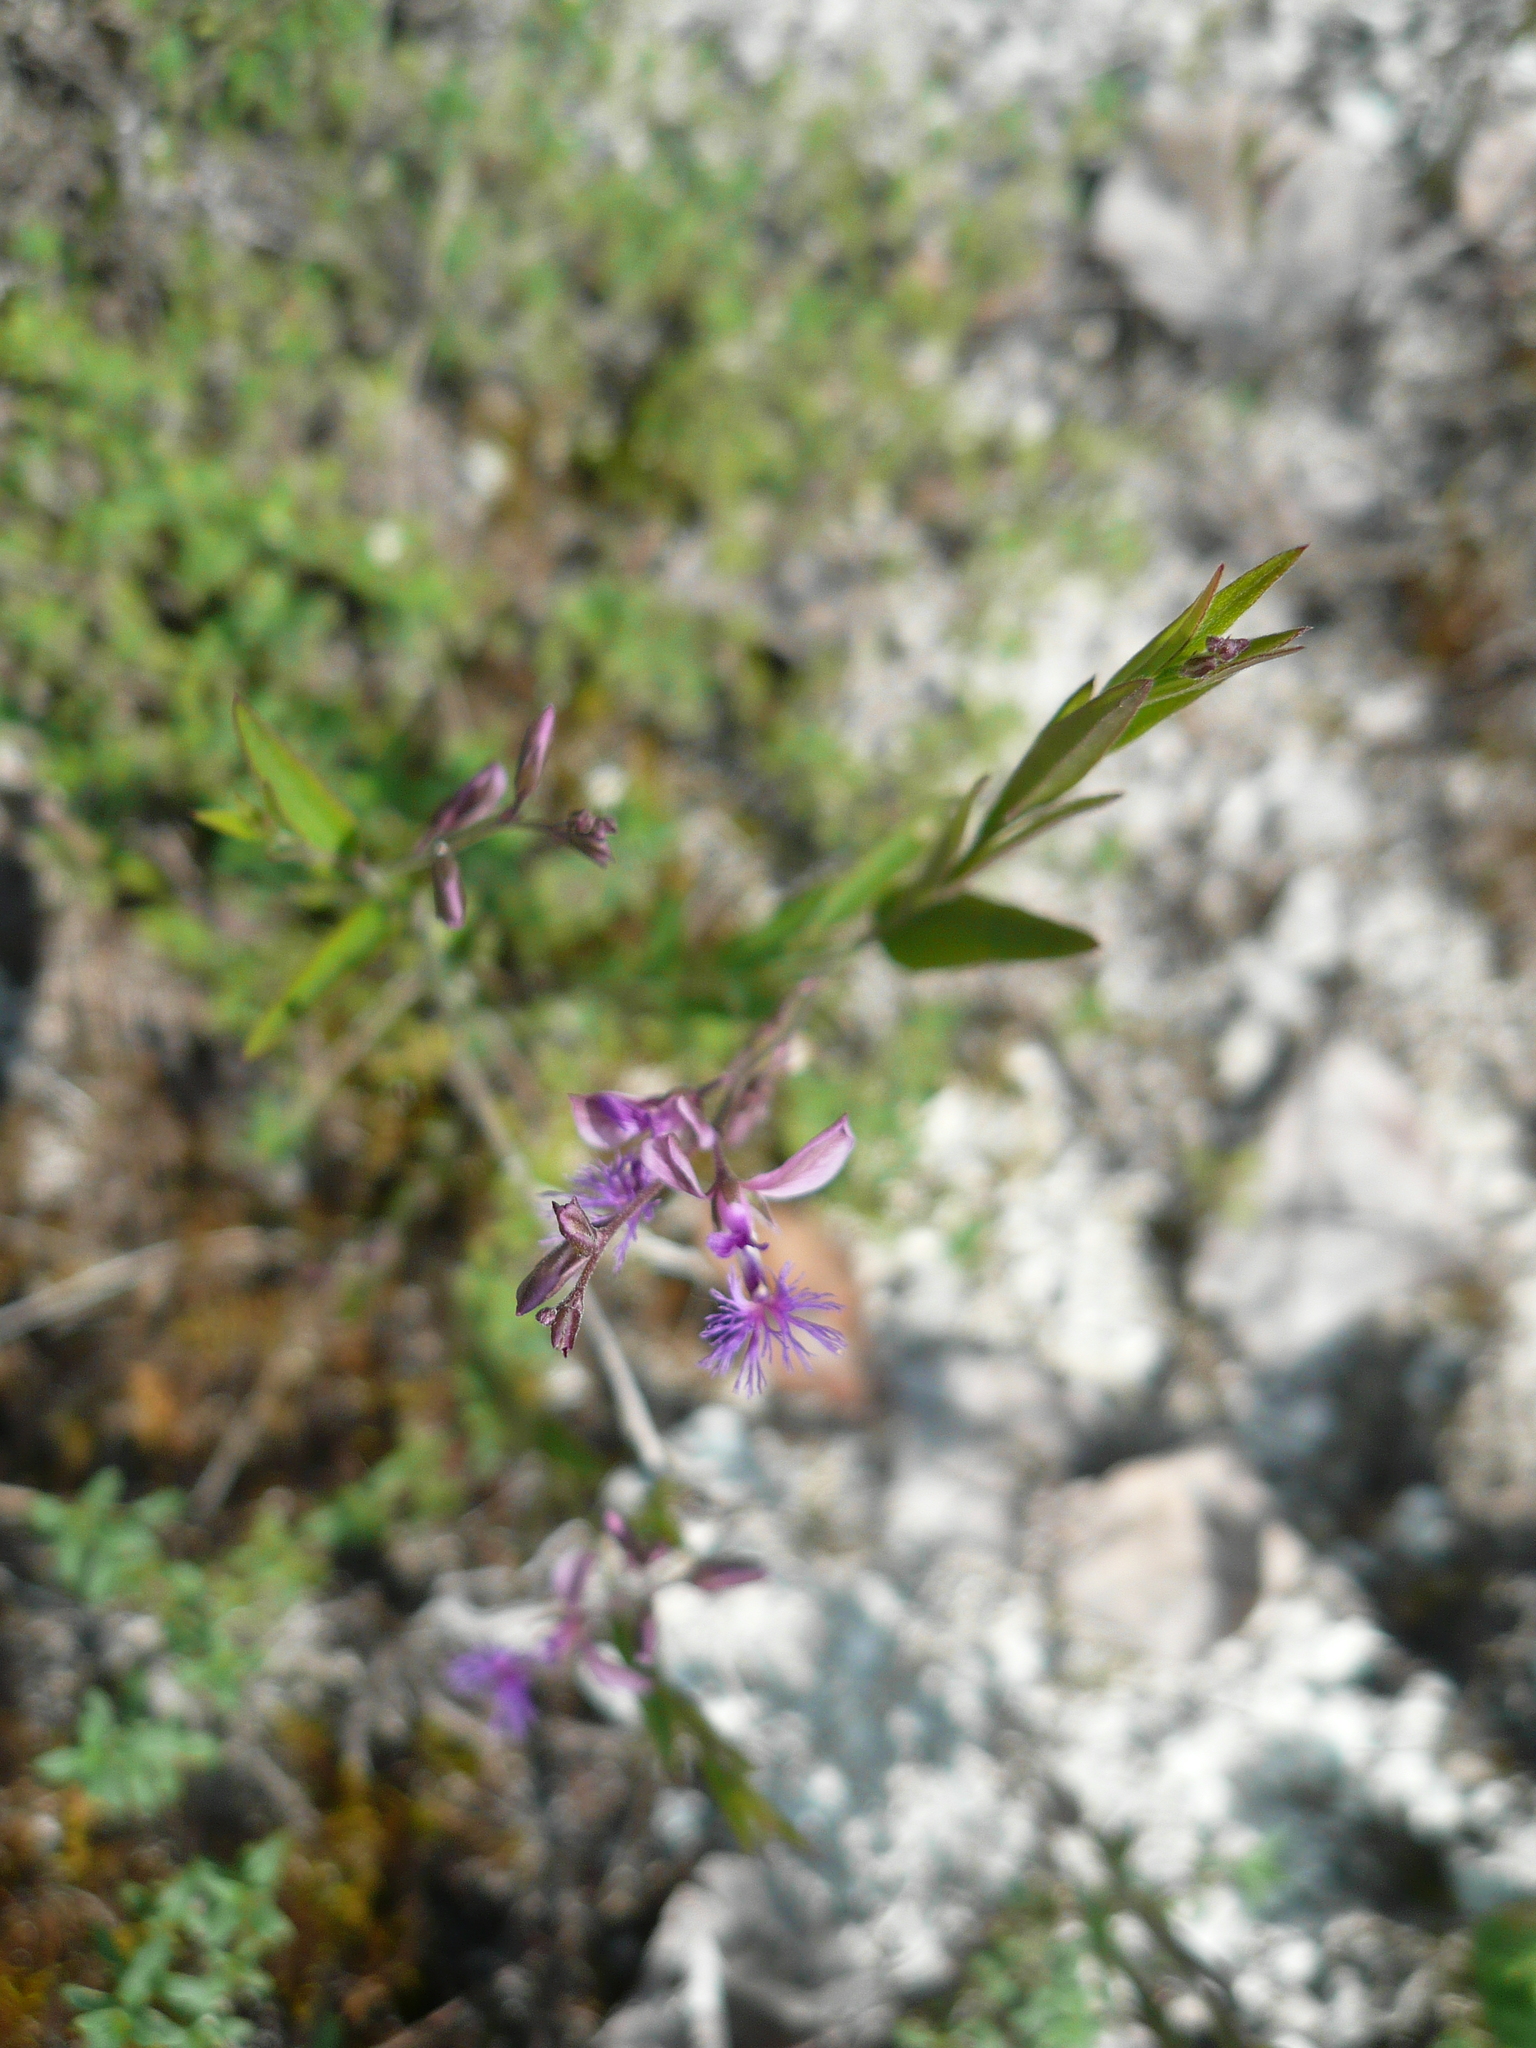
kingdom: Plantae
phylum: Tracheophyta
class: Magnoliopsida
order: Fabales
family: Polygalaceae
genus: Polygala
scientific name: Polygala sibirica
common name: Siberian polygala
